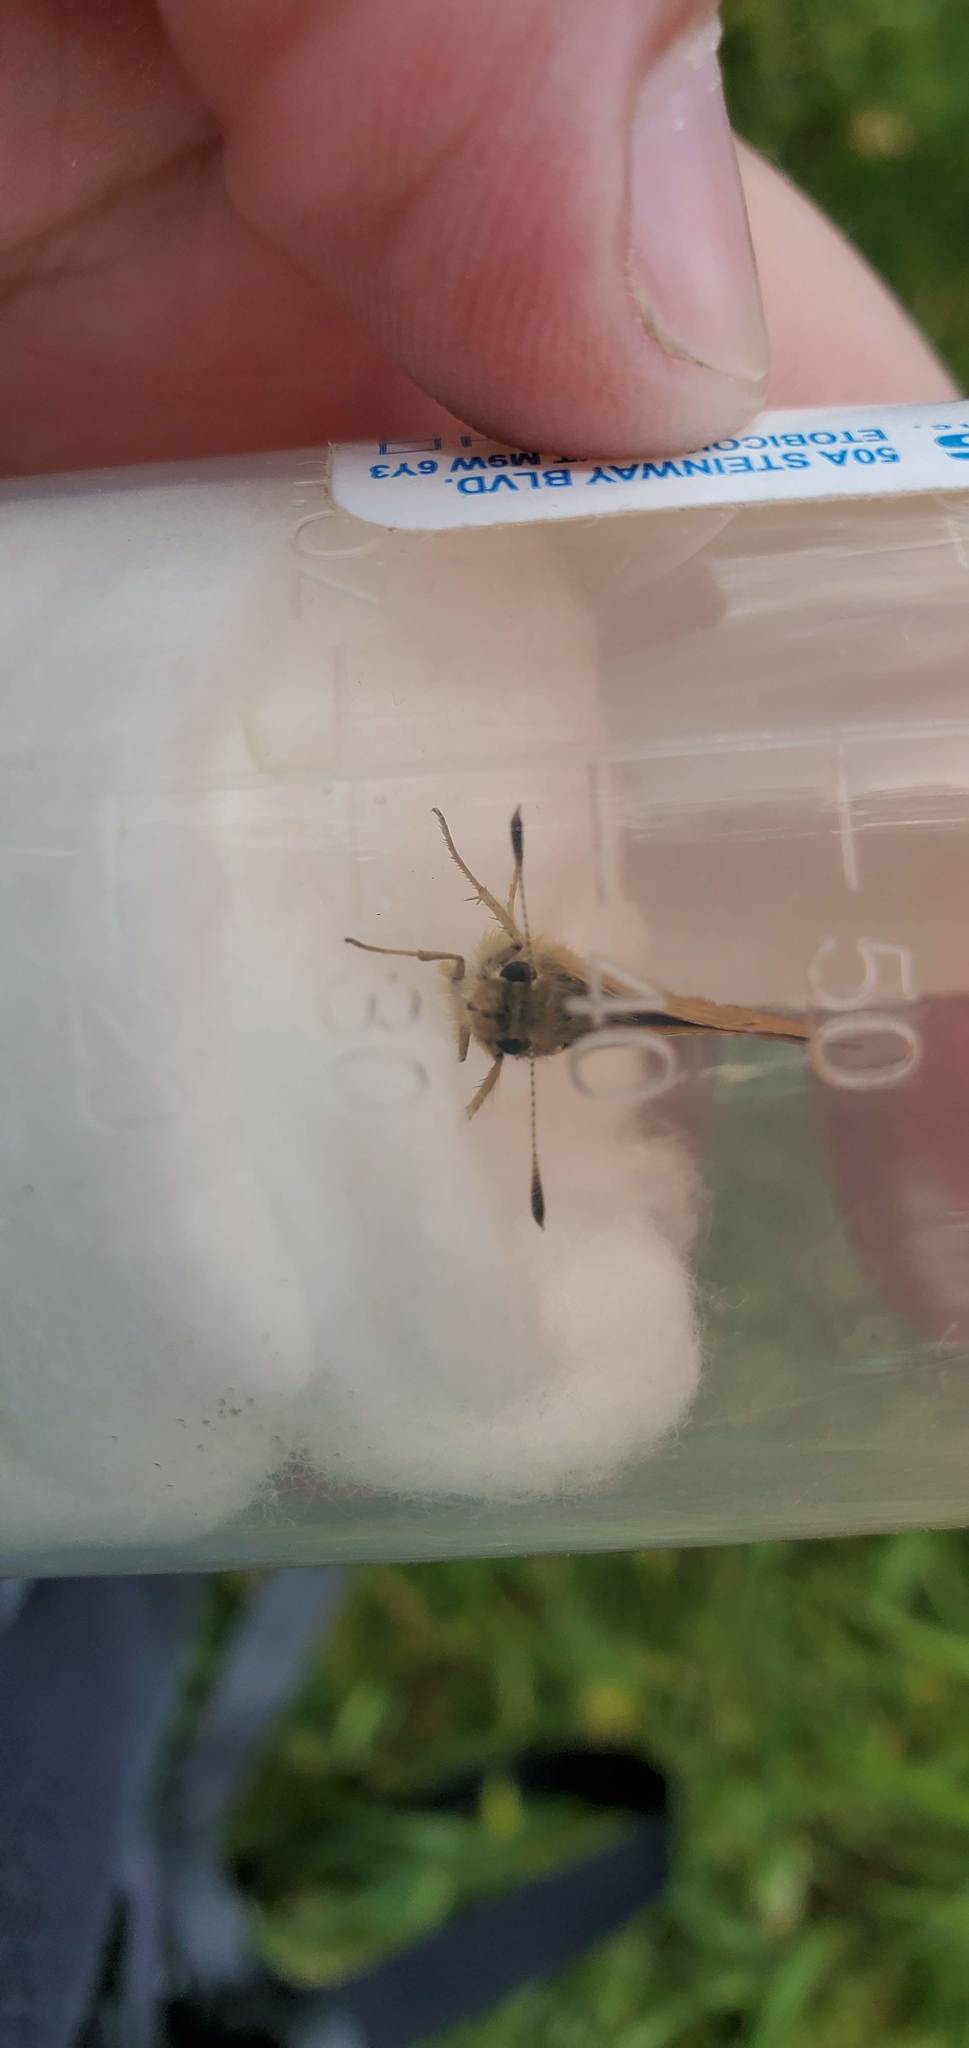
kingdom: Animalia
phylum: Arthropoda
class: Insecta
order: Lepidoptera
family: Hesperiidae
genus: Ochlodes
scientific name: Ochlodes sylvanoides
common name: Woodland skipper
